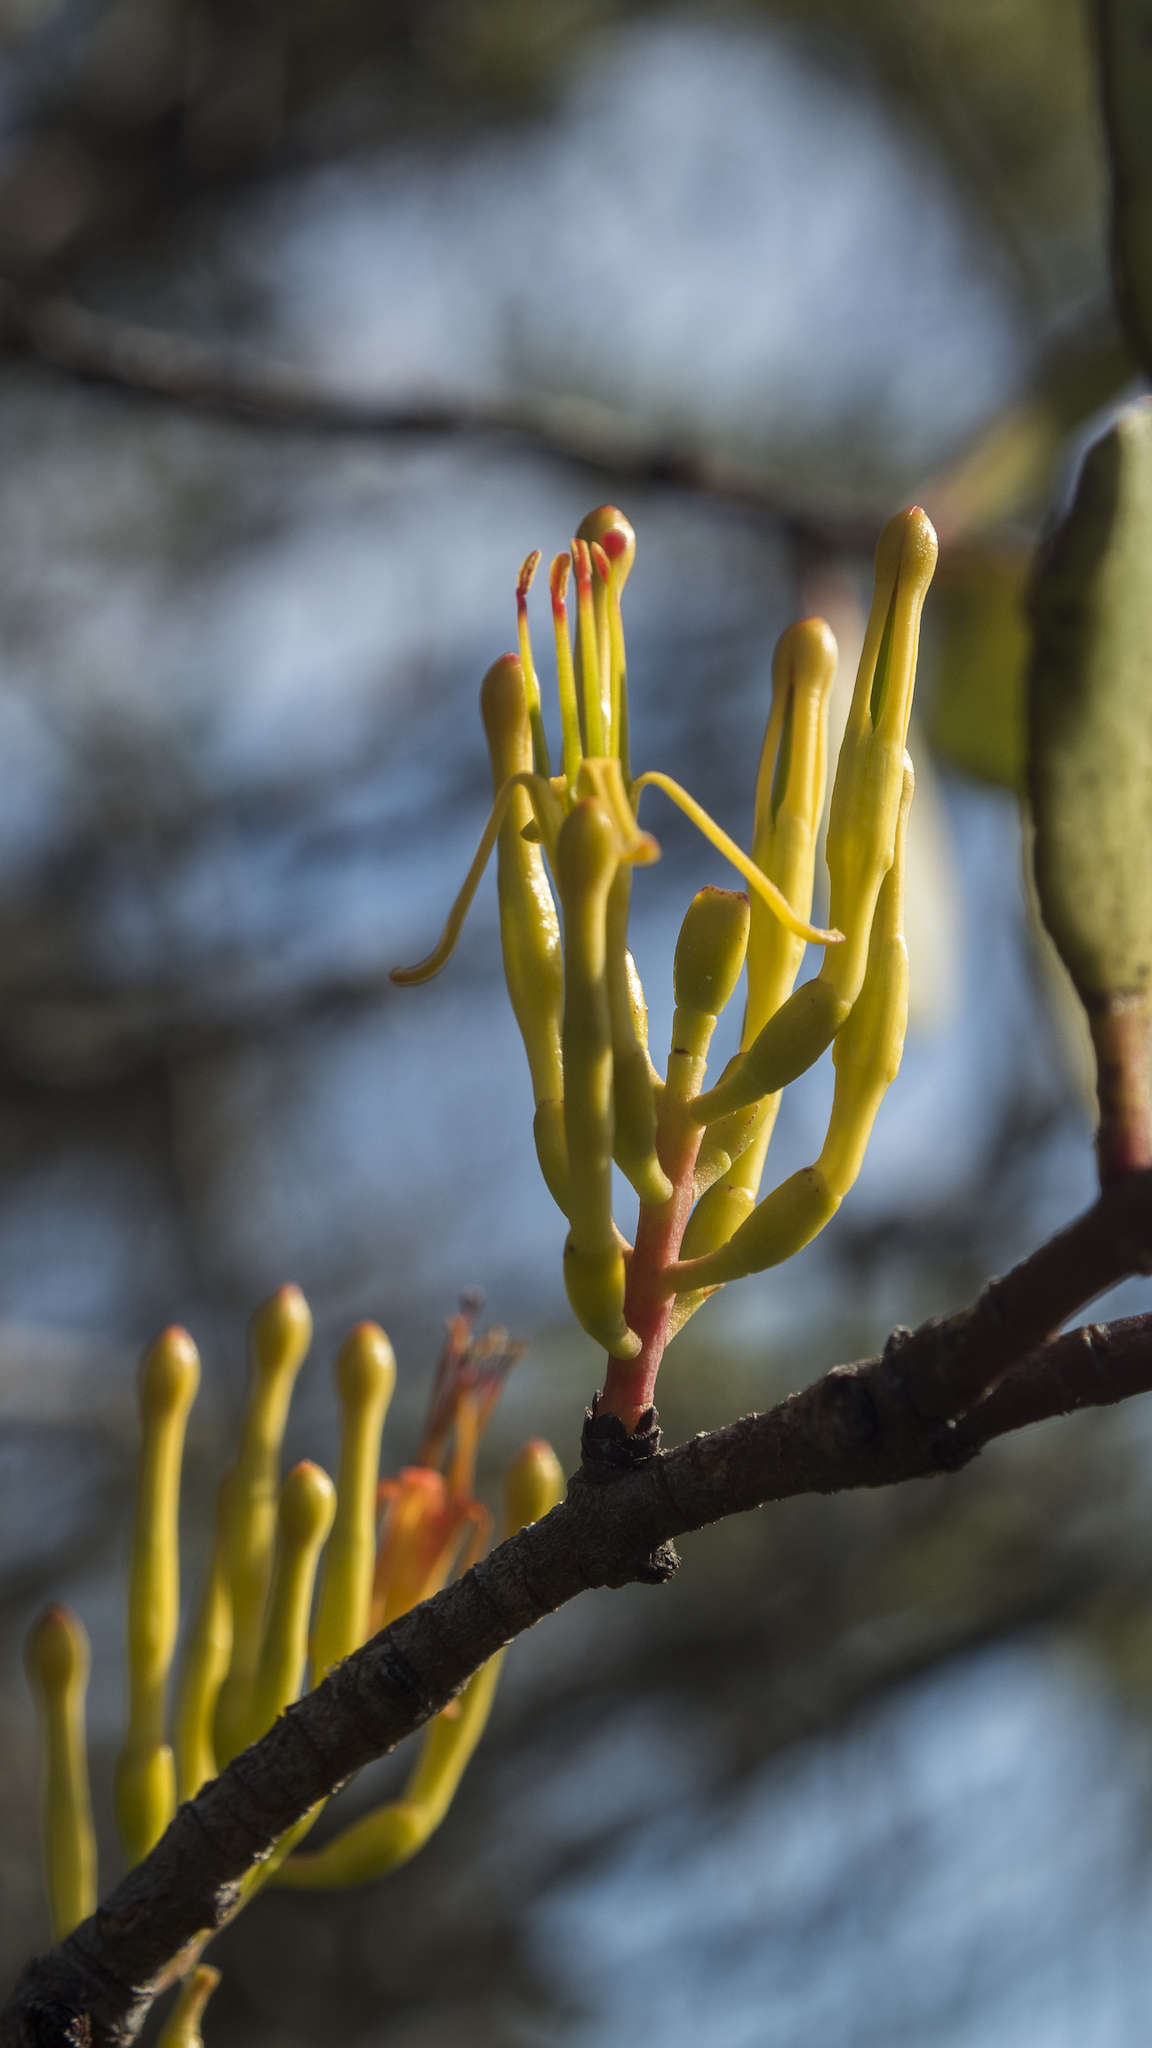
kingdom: Plantae
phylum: Tracheophyta
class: Magnoliopsida
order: Santalales
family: Loranthaceae
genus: Alepis
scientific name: Alepis flavida
